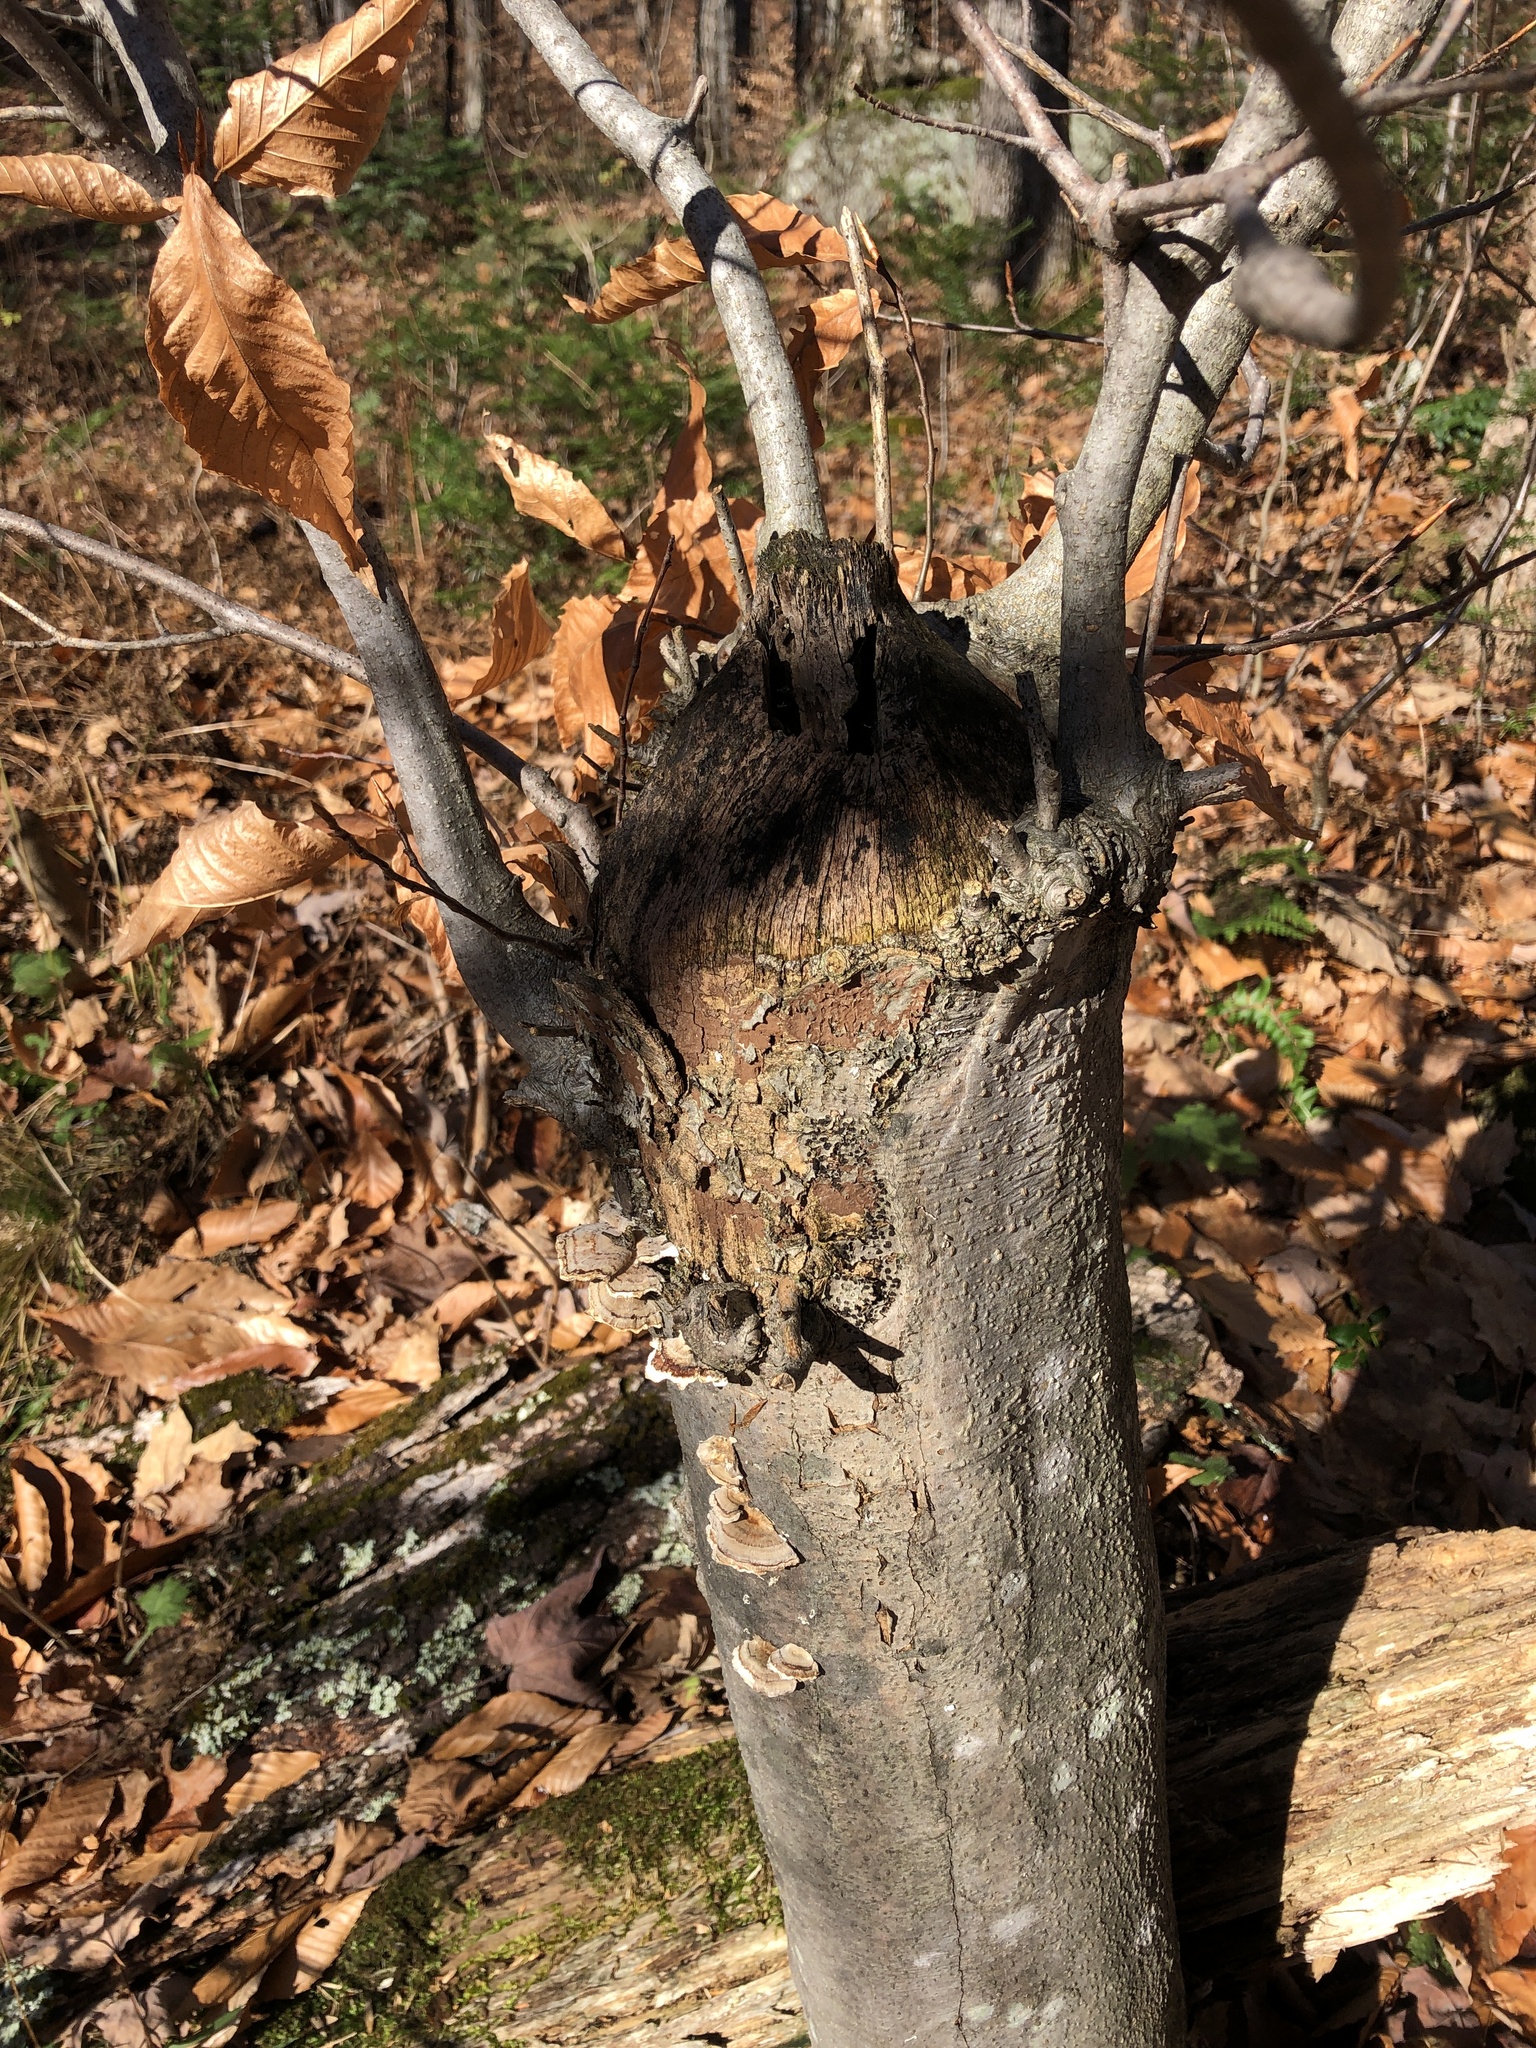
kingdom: Animalia
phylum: Chordata
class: Mammalia
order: Rodentia
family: Castoridae
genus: Castor
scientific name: Castor canadensis
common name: American beaver
